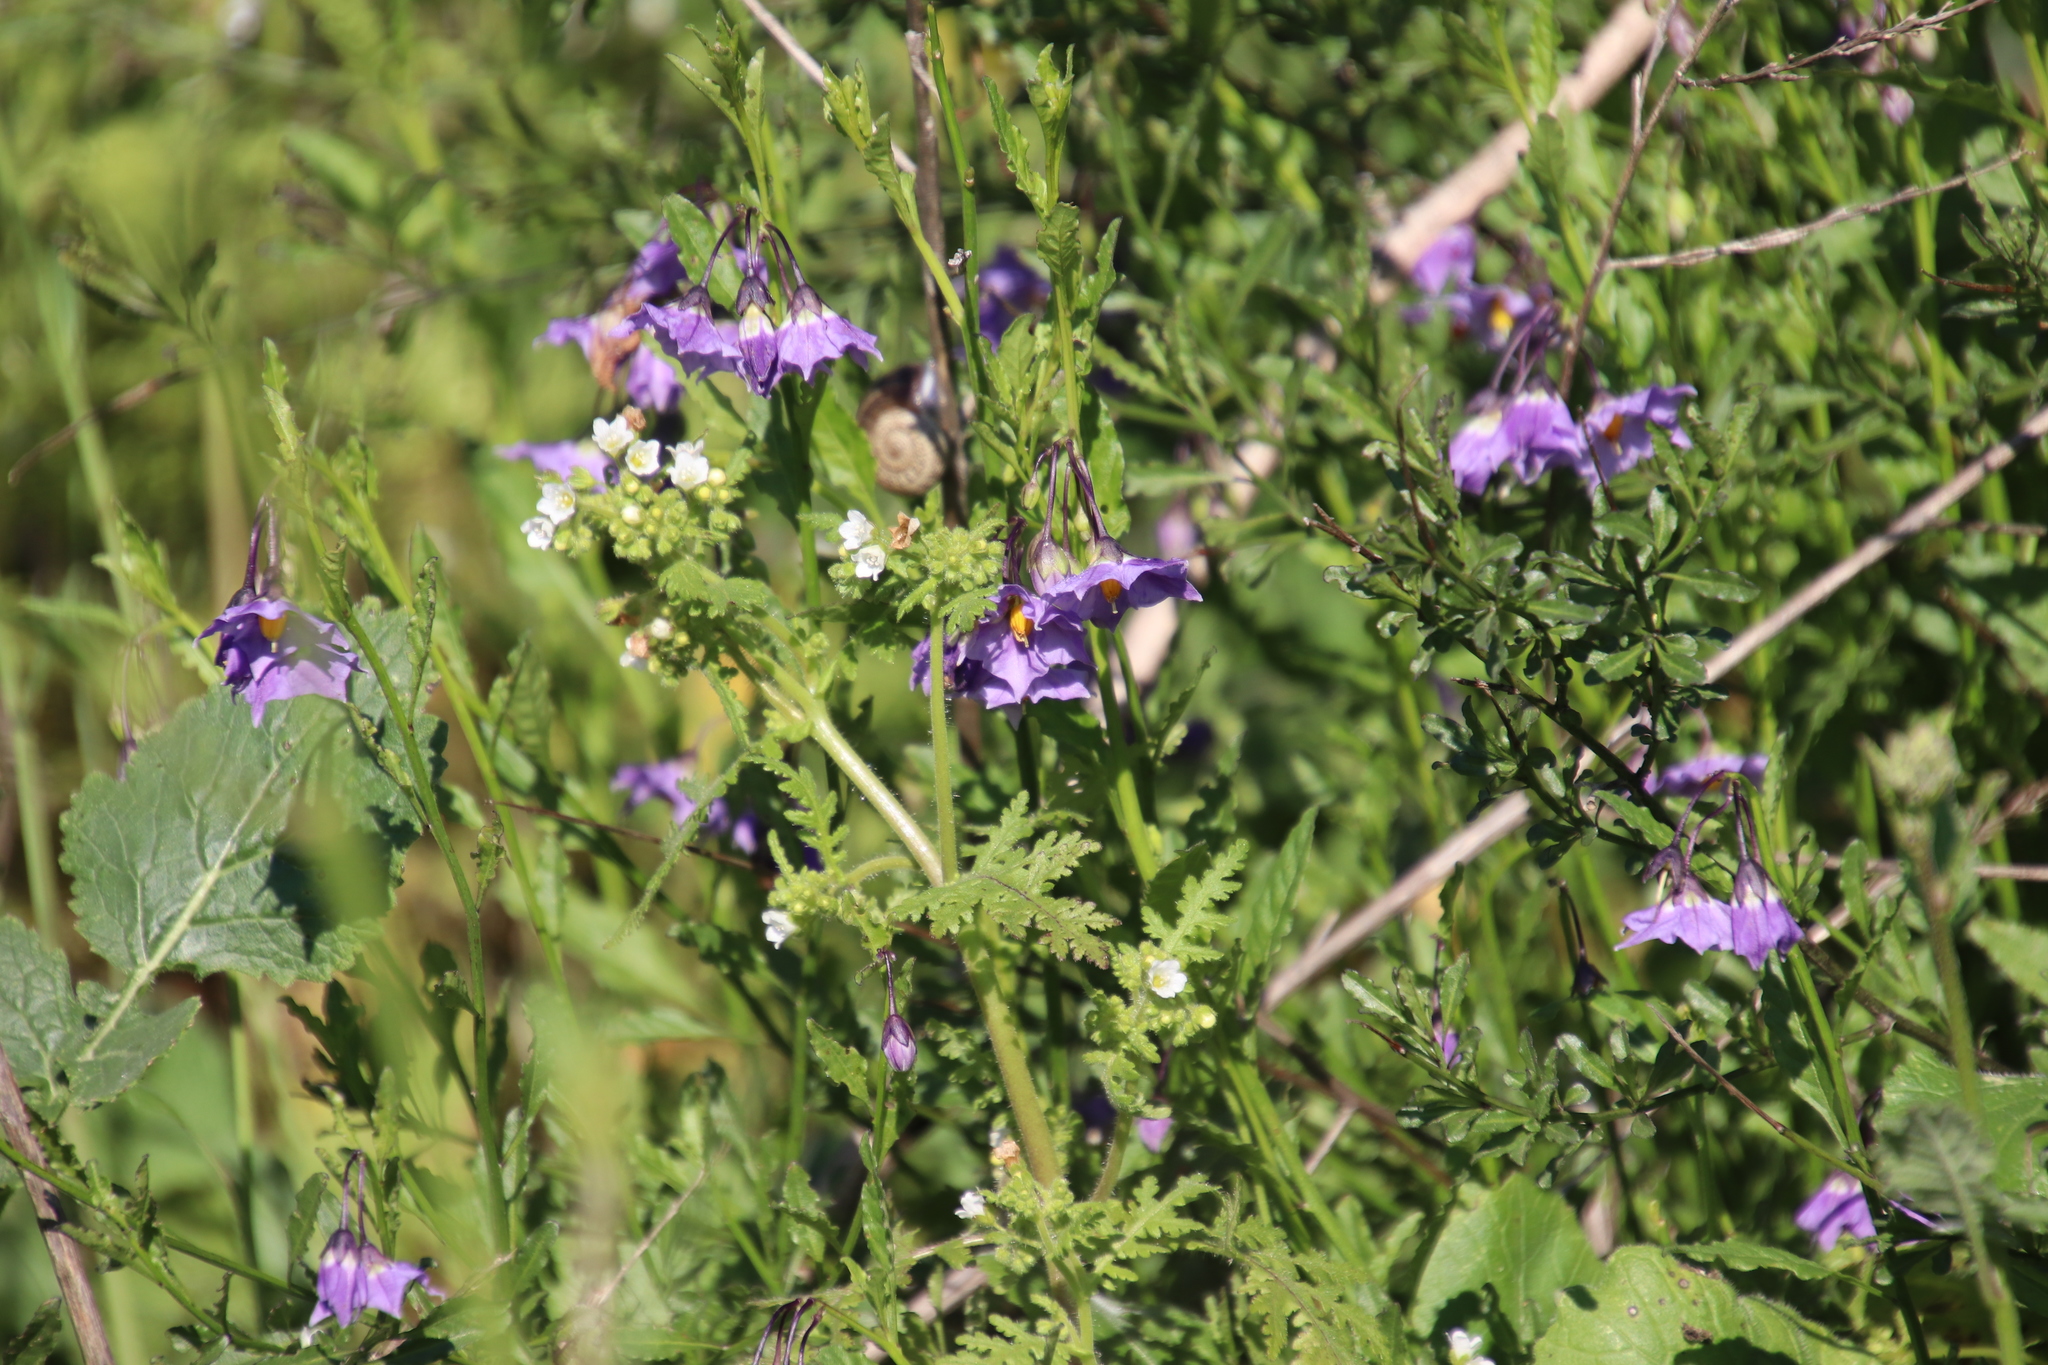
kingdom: Plantae
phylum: Tracheophyta
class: Magnoliopsida
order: Solanales
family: Solanaceae
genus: Solanum
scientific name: Solanum umbelliferum
